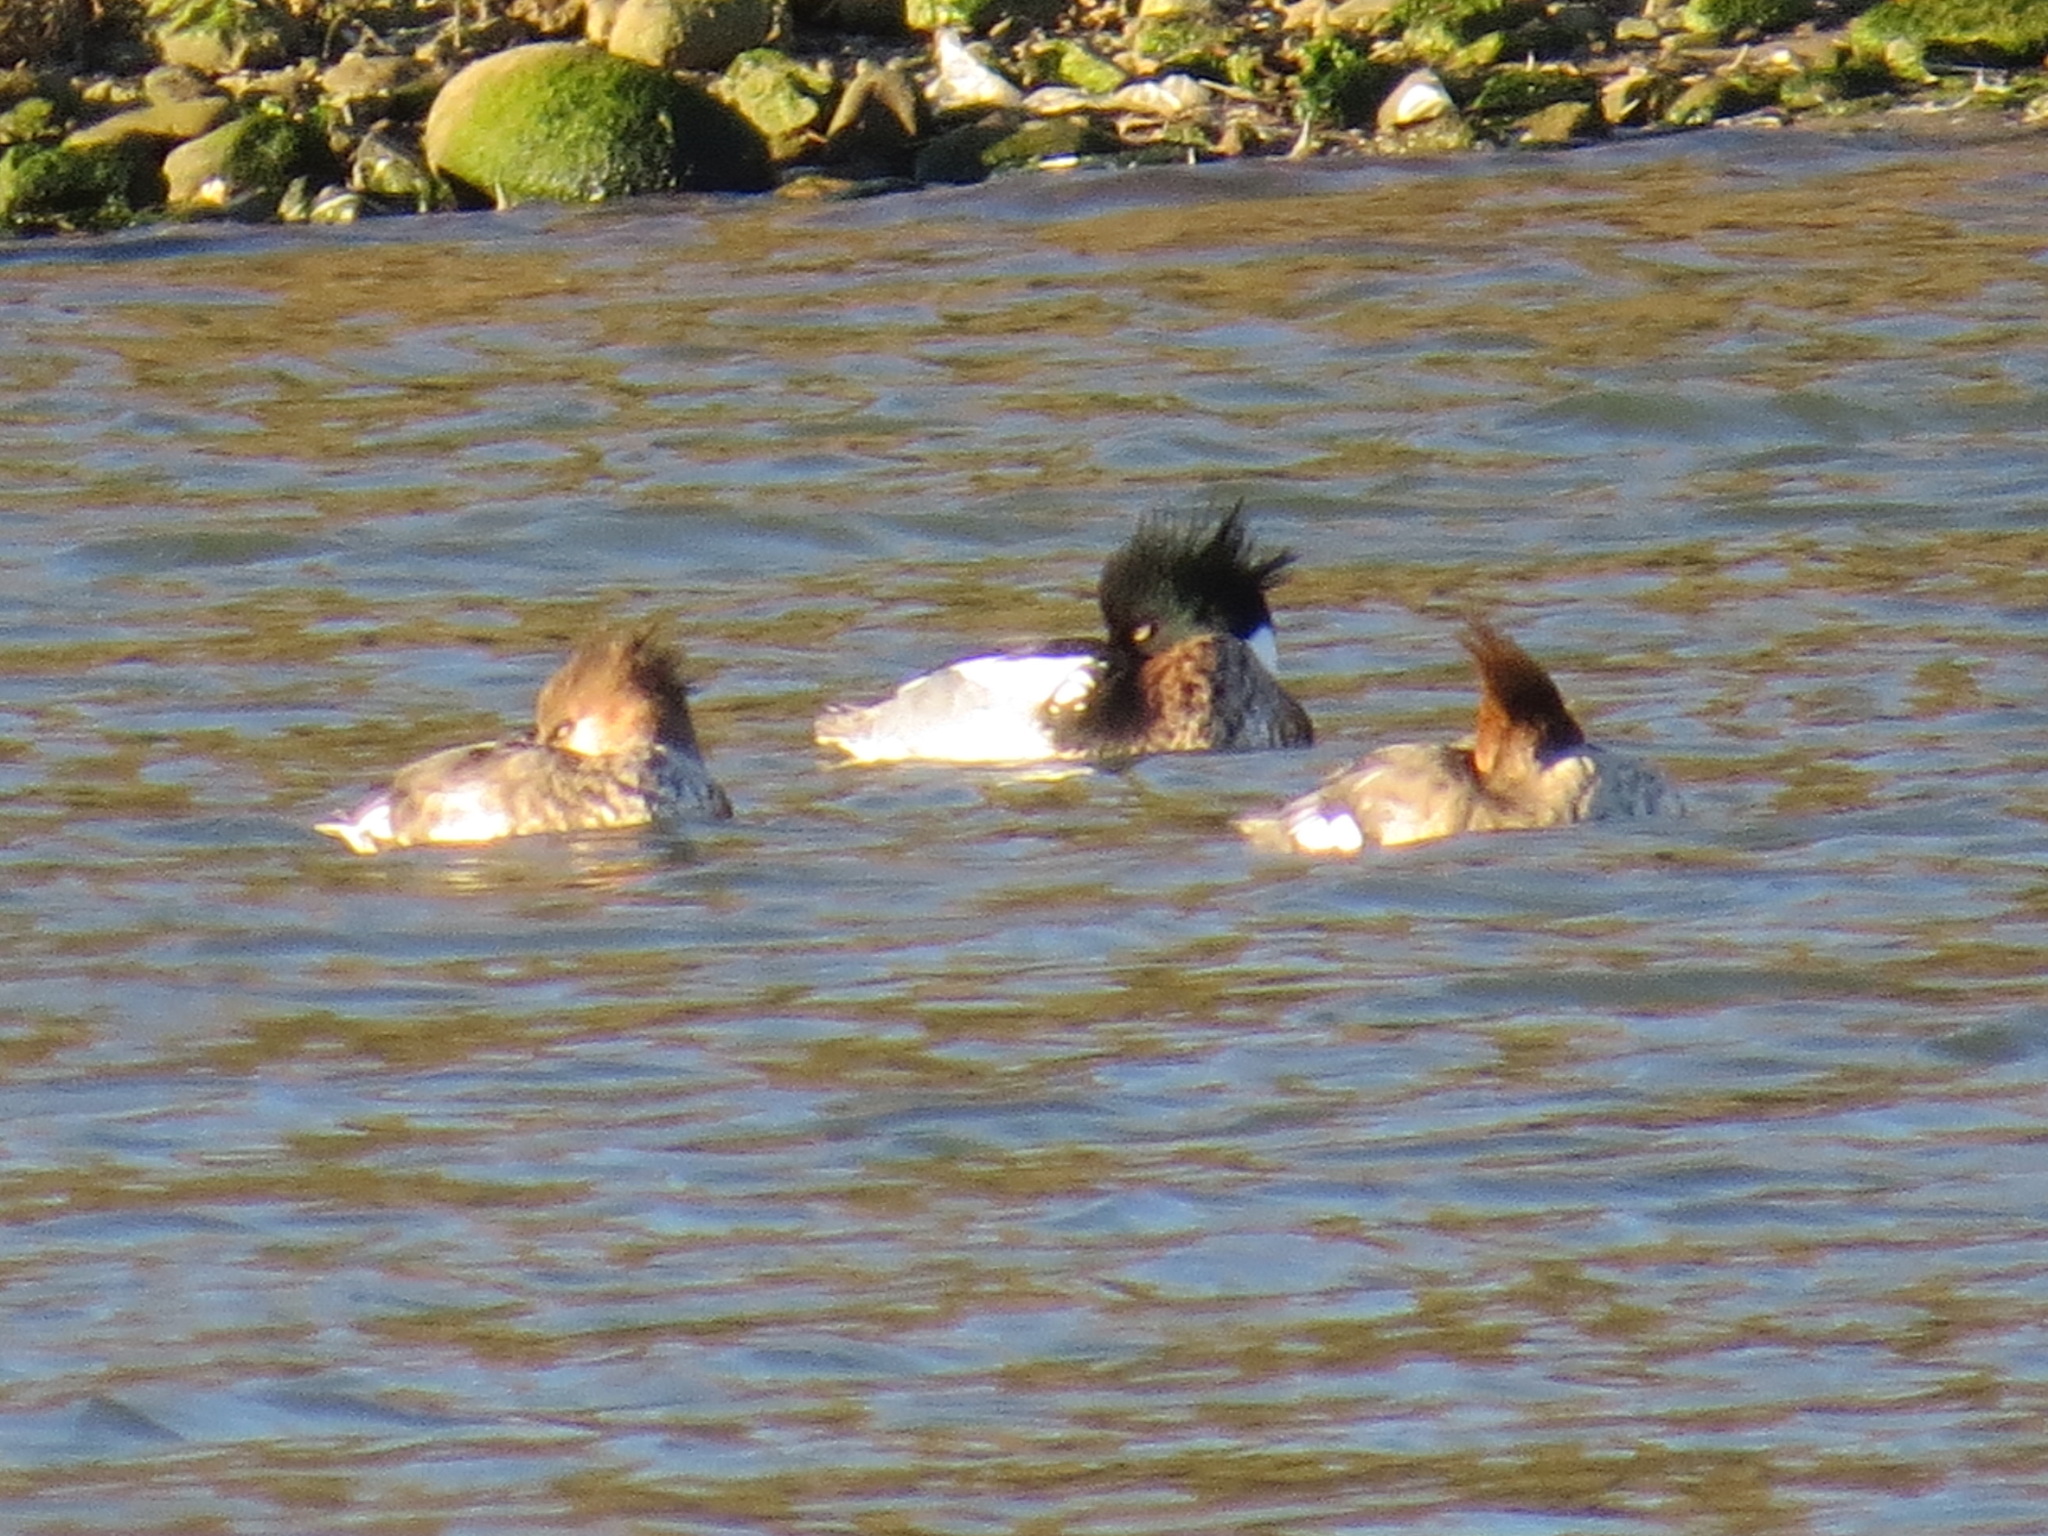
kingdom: Animalia
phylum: Chordata
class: Aves
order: Anseriformes
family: Anatidae
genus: Mergus
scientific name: Mergus serrator
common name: Red-breasted merganser
